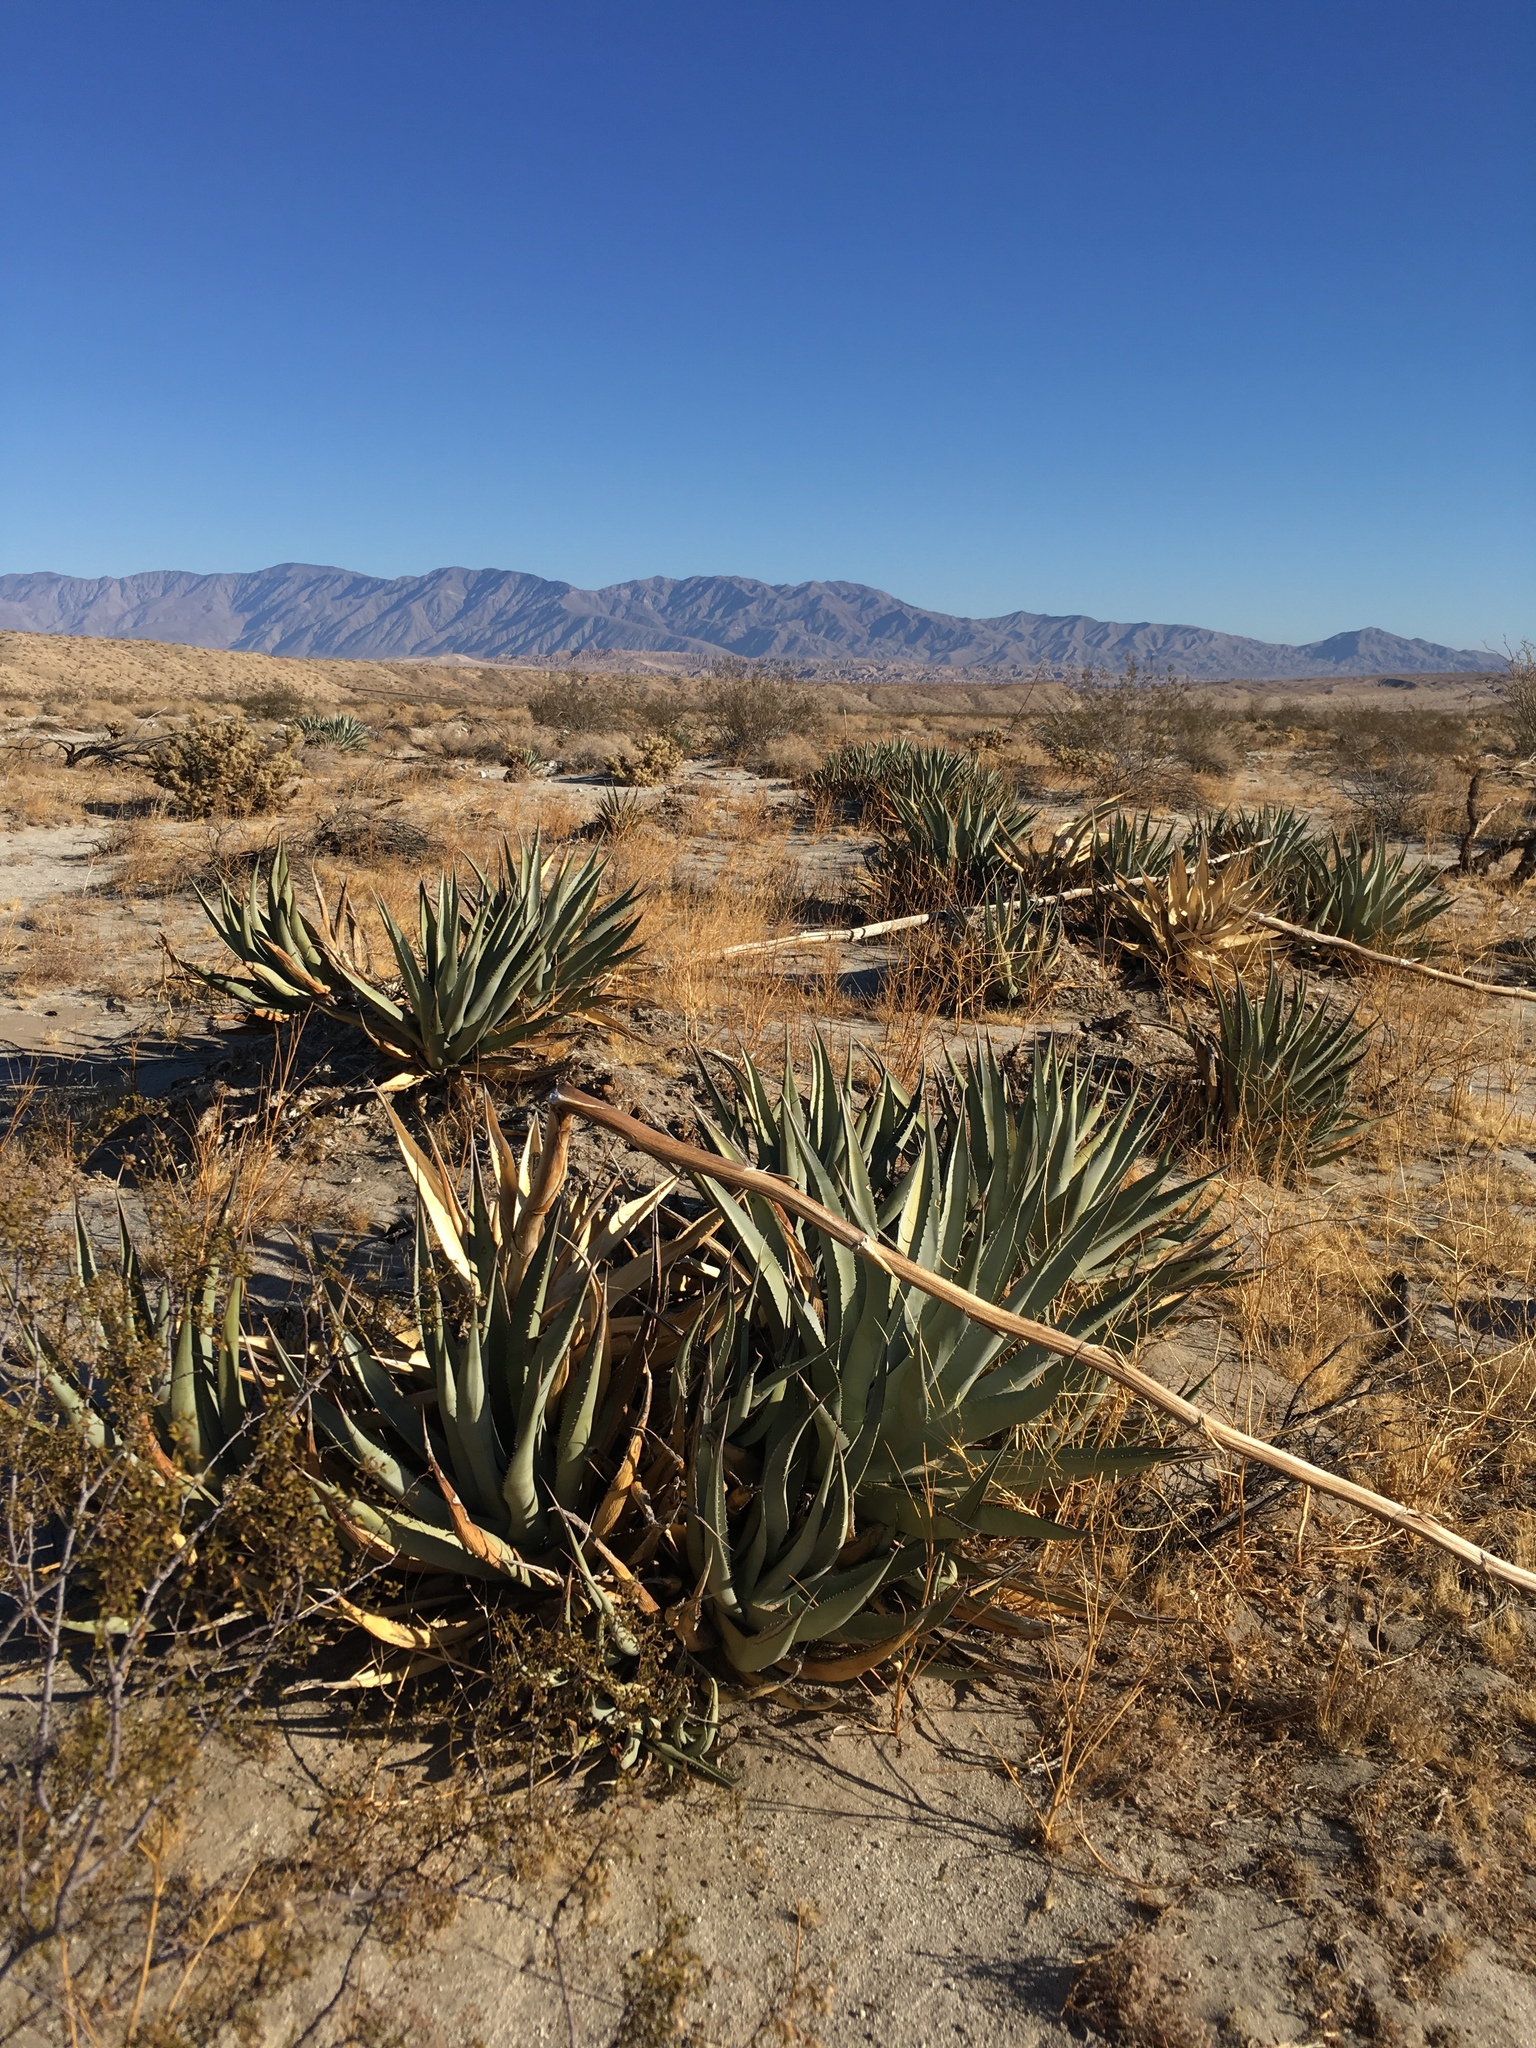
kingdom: Plantae
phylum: Tracheophyta
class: Liliopsida
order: Asparagales
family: Asparagaceae
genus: Agave
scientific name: Agave deserti
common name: Desert agave
